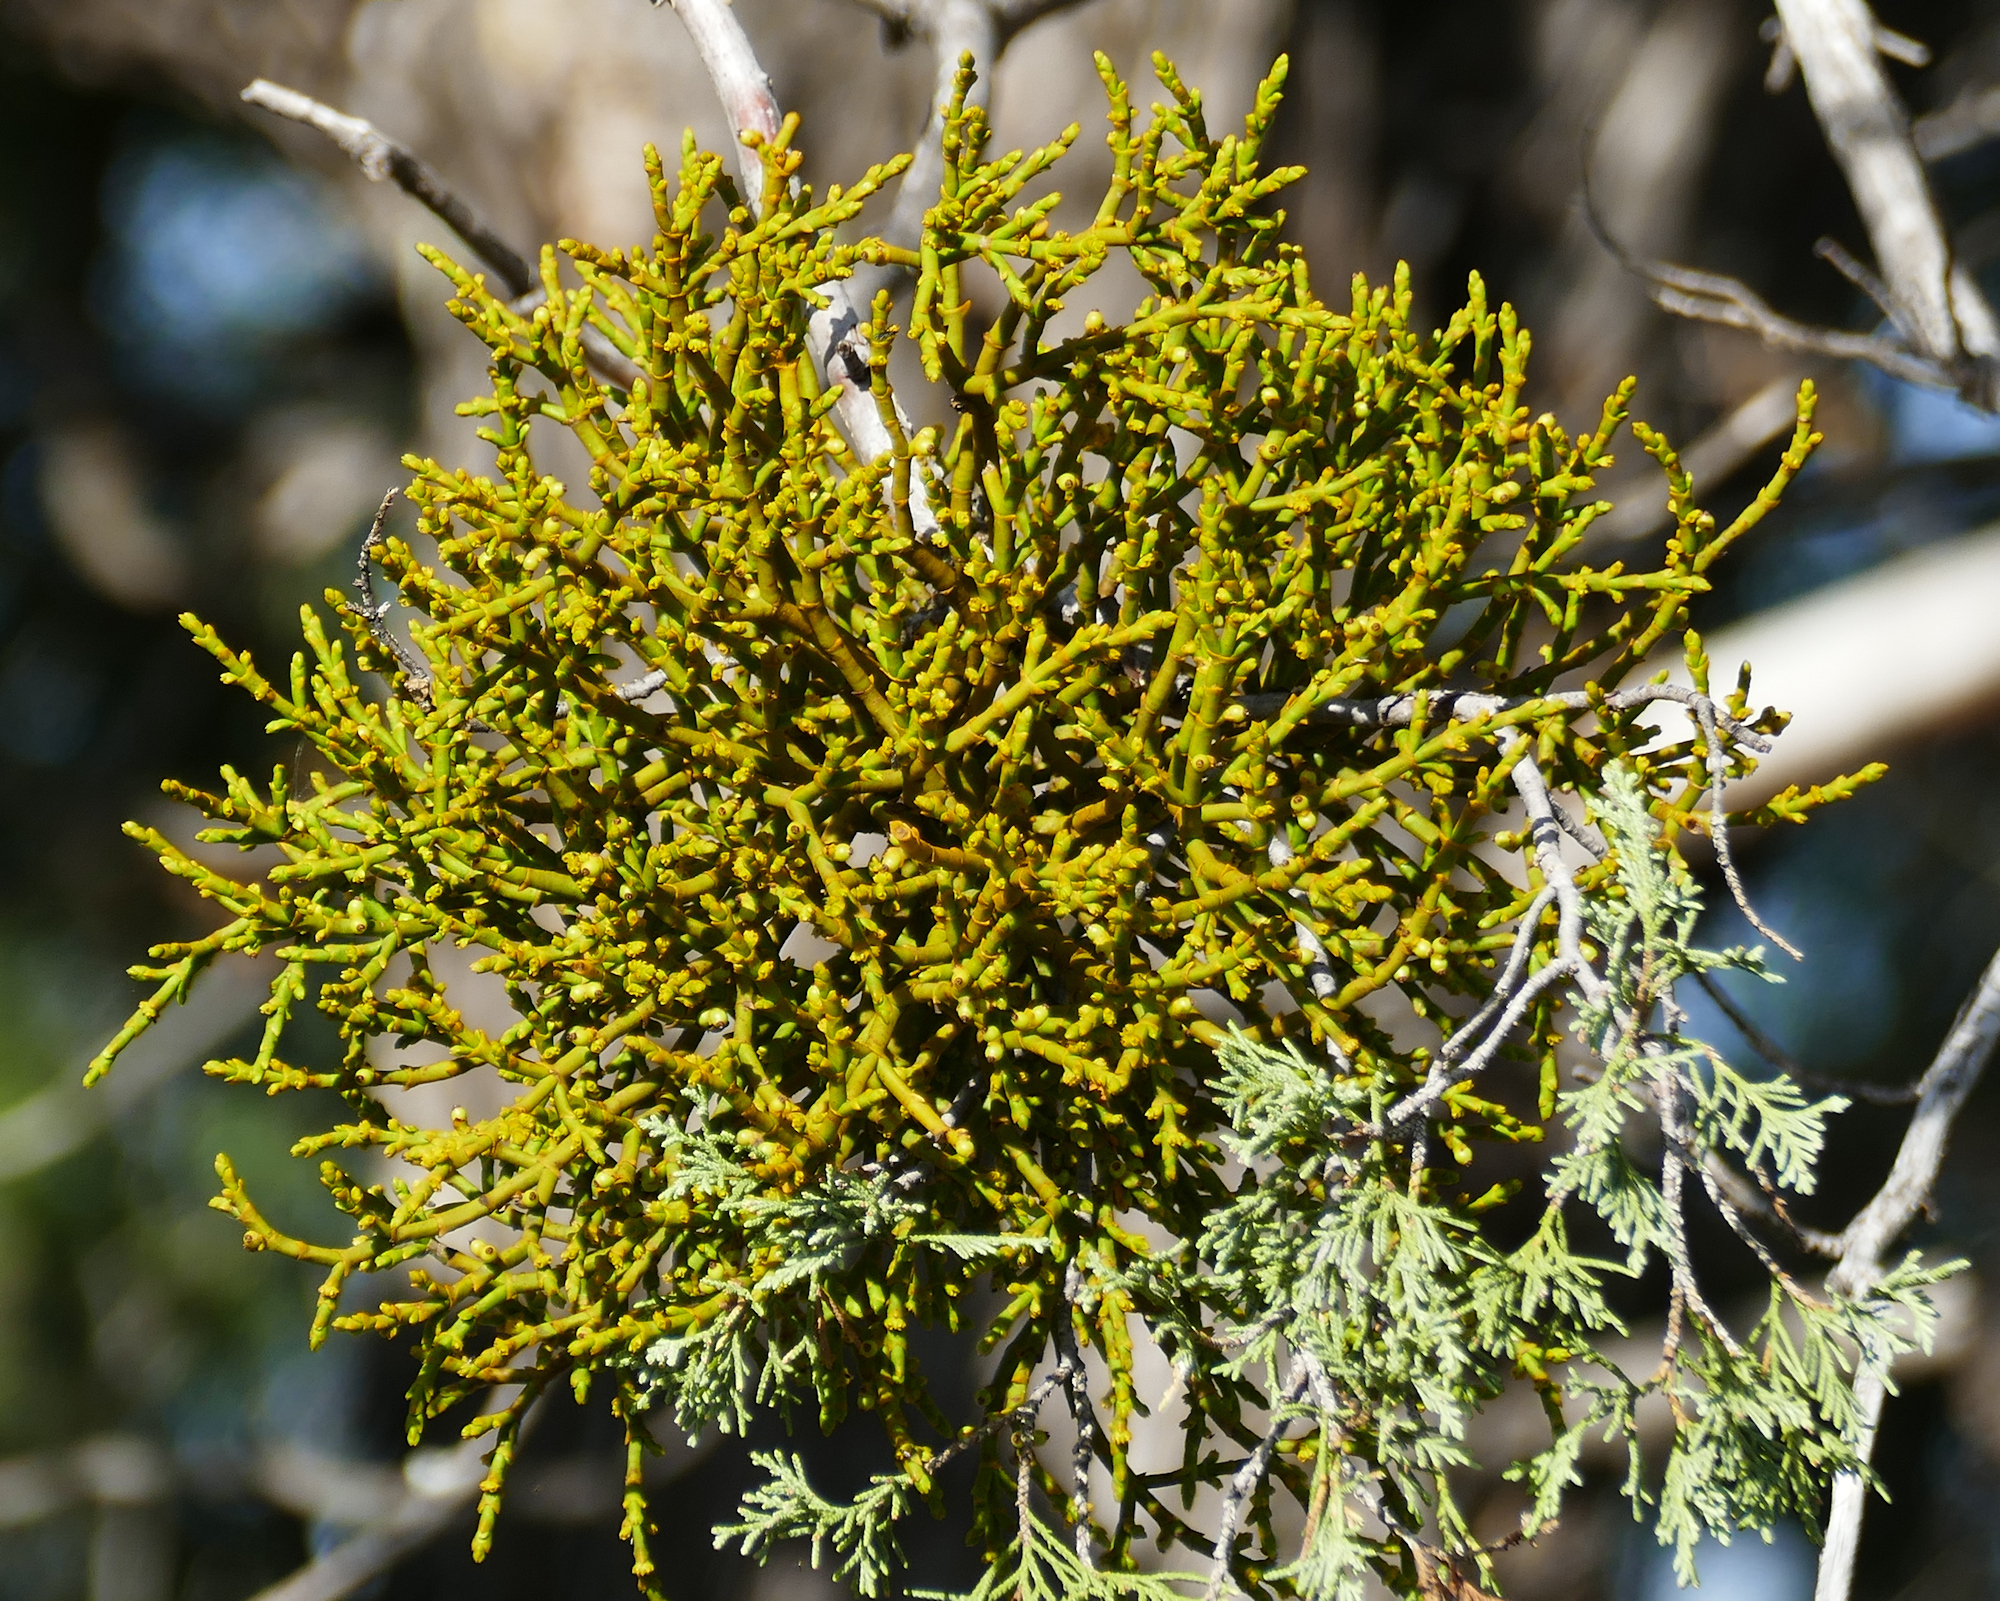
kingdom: Plantae
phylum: Tracheophyta
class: Magnoliopsida
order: Santalales
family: Viscaceae
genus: Phoradendron
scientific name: Phoradendron juniperinum
